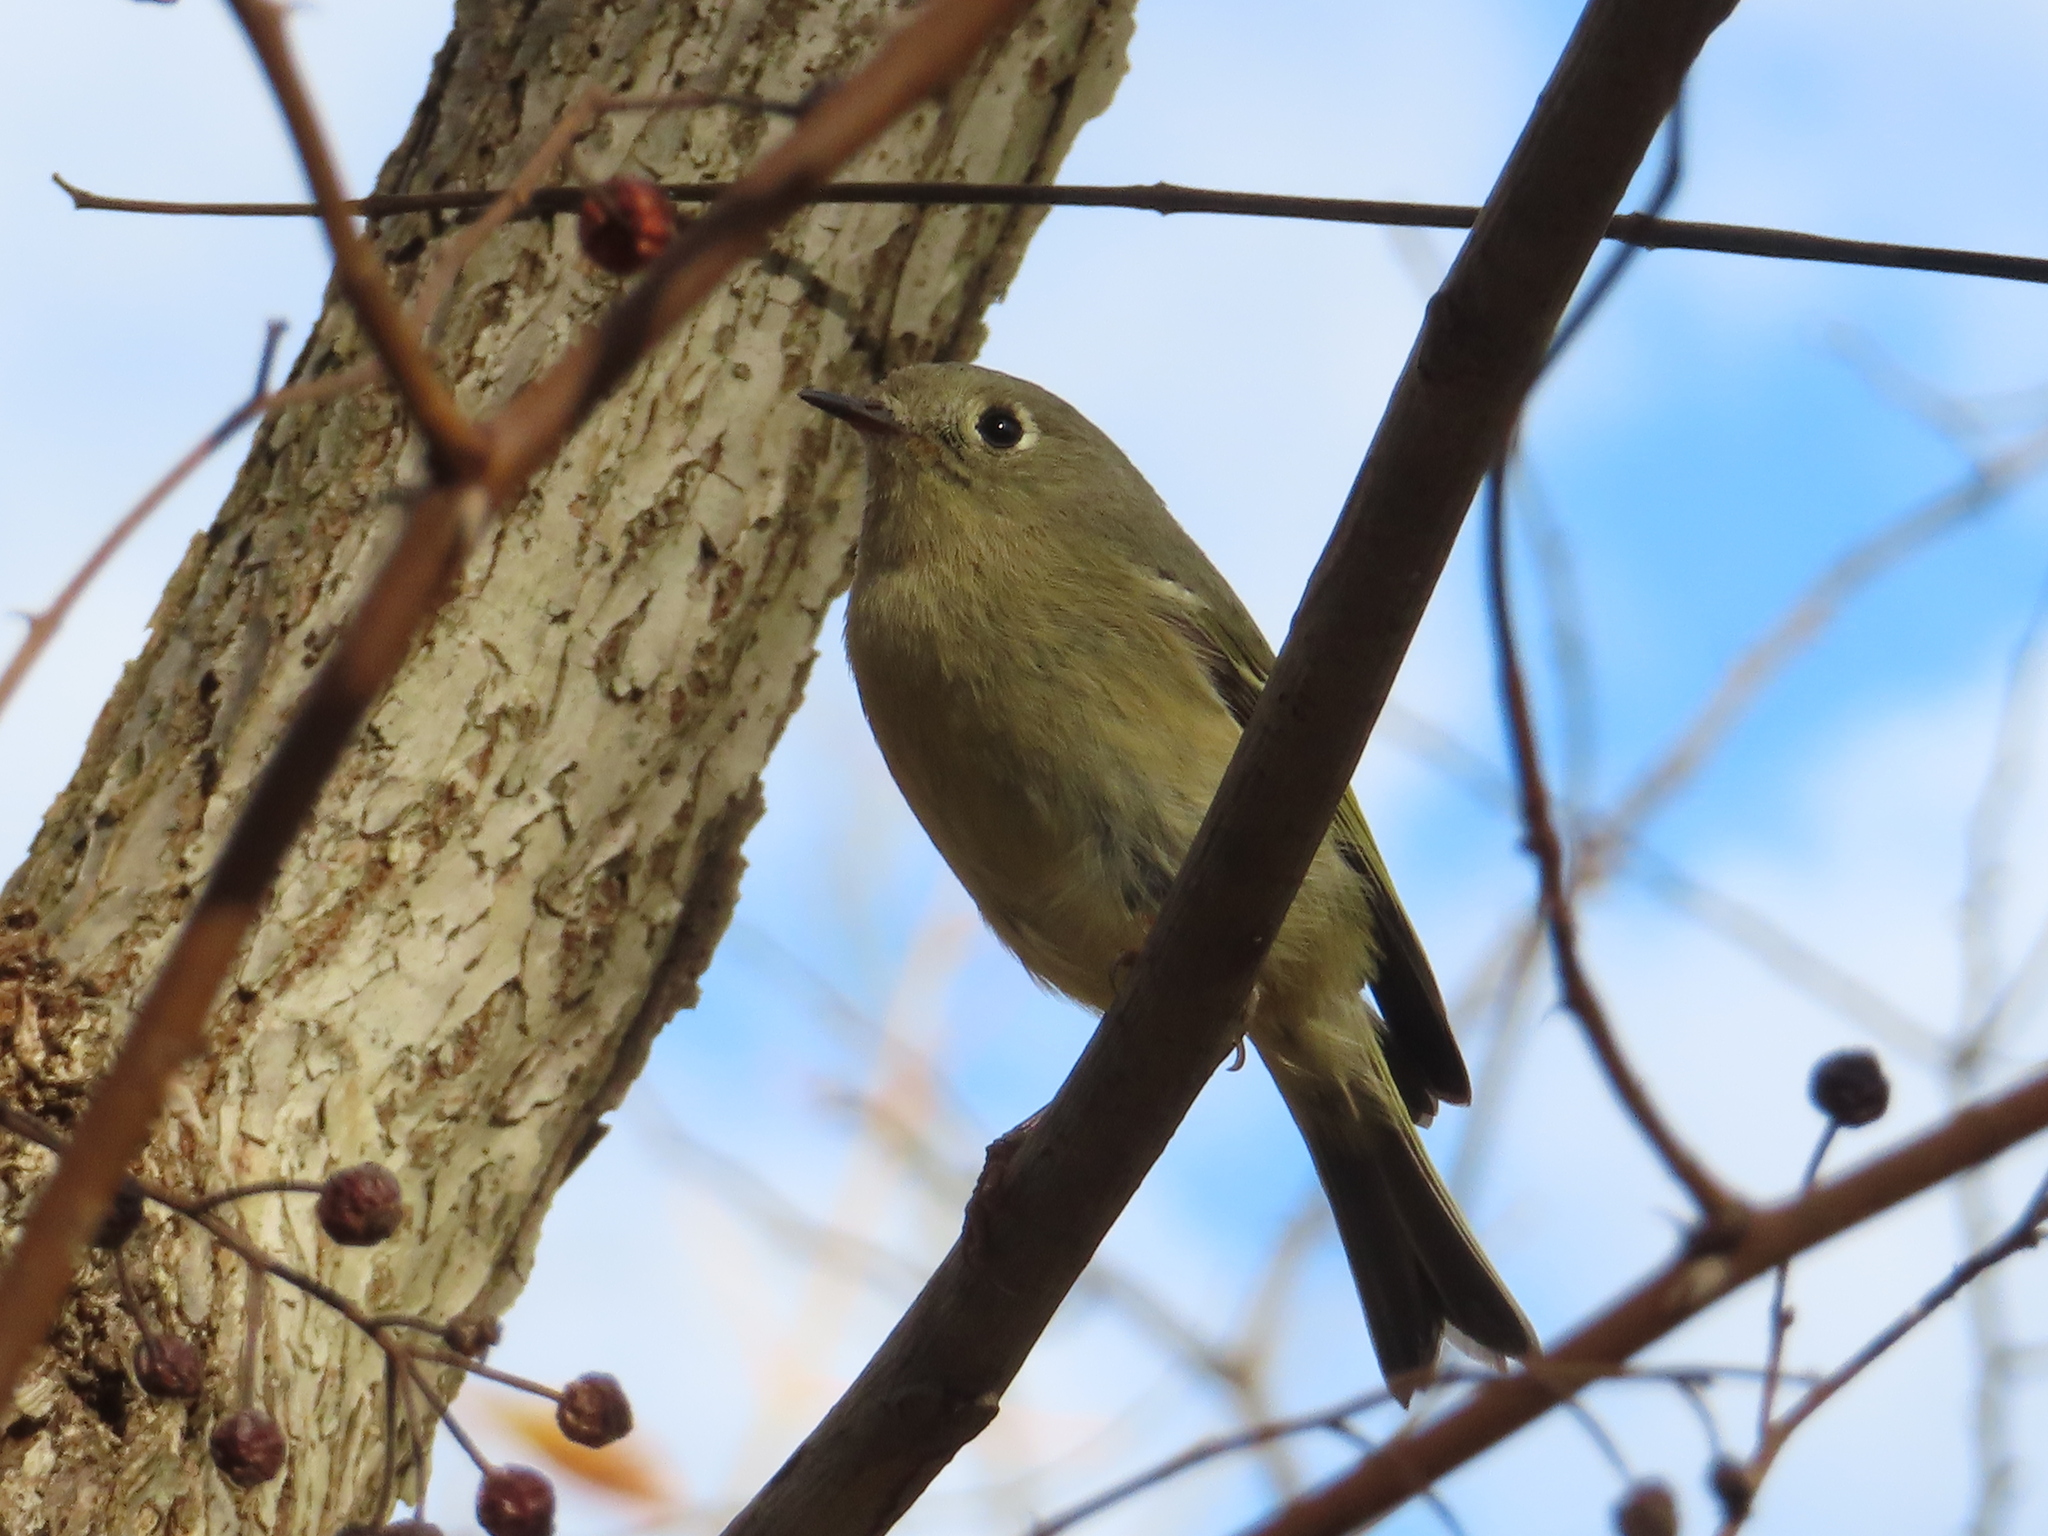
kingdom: Animalia
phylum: Chordata
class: Aves
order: Passeriformes
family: Regulidae
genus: Regulus
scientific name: Regulus calendula
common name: Ruby-crowned kinglet
